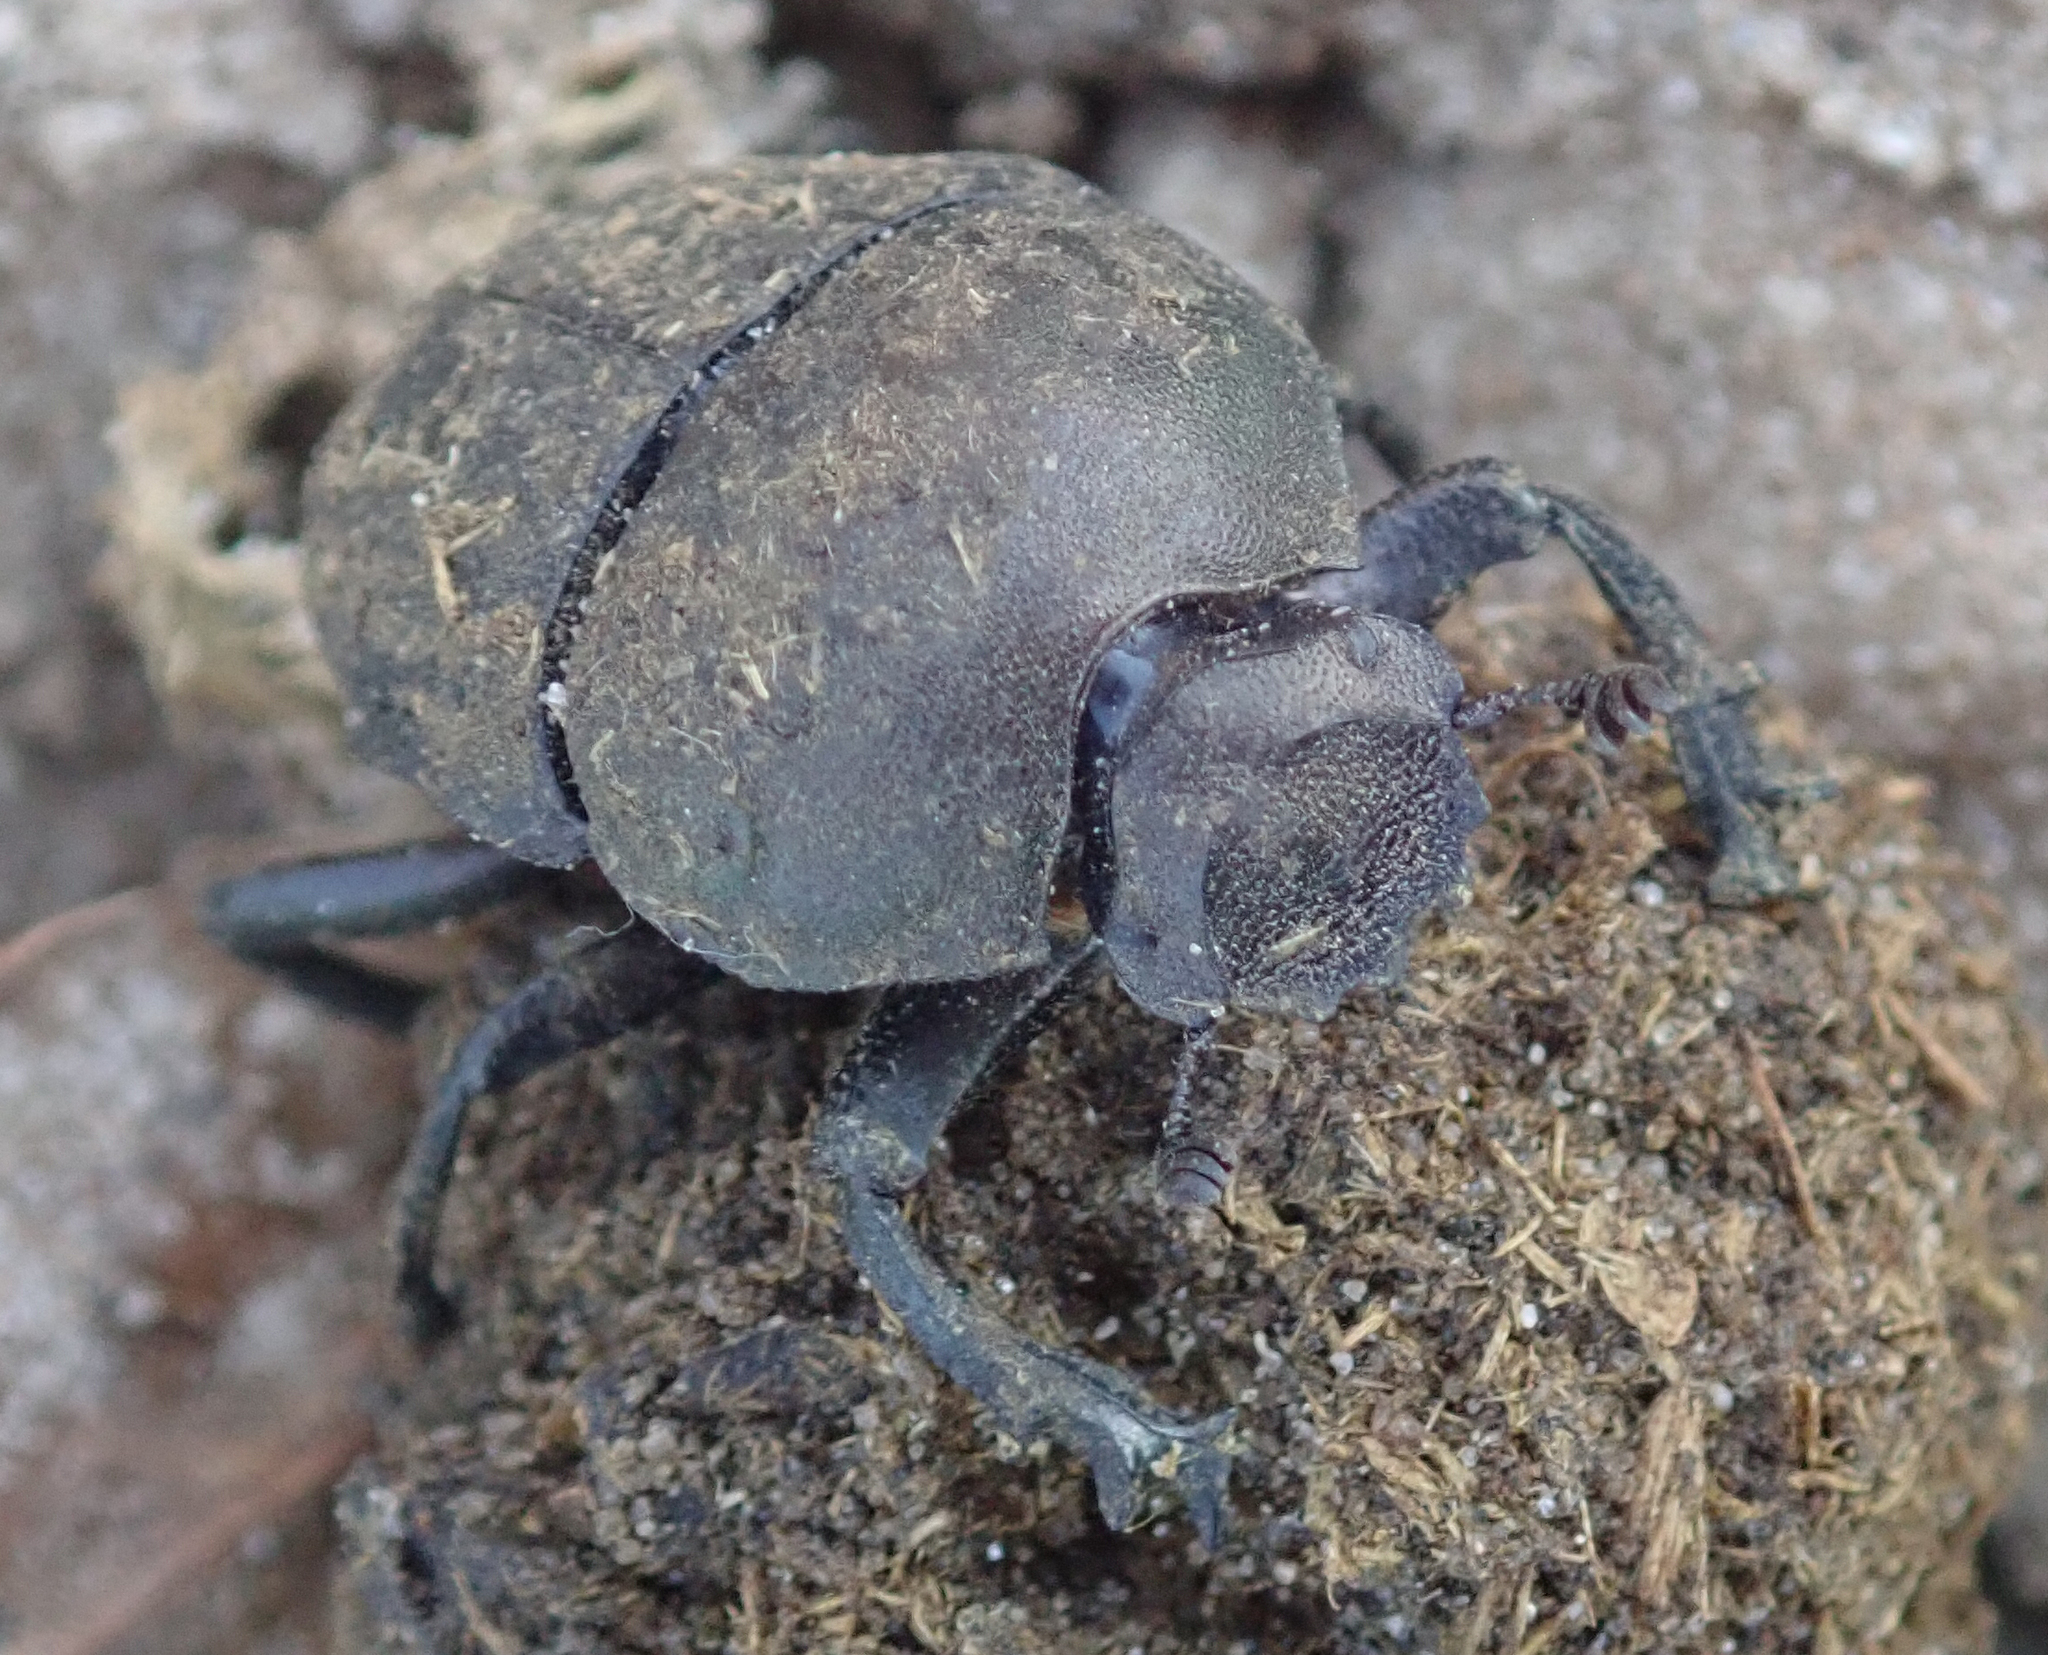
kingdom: Animalia
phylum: Arthropoda
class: Insecta
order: Coleoptera
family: Scarabaeidae
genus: Allogymnopleurus
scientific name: Allogymnopleurus splendidus
